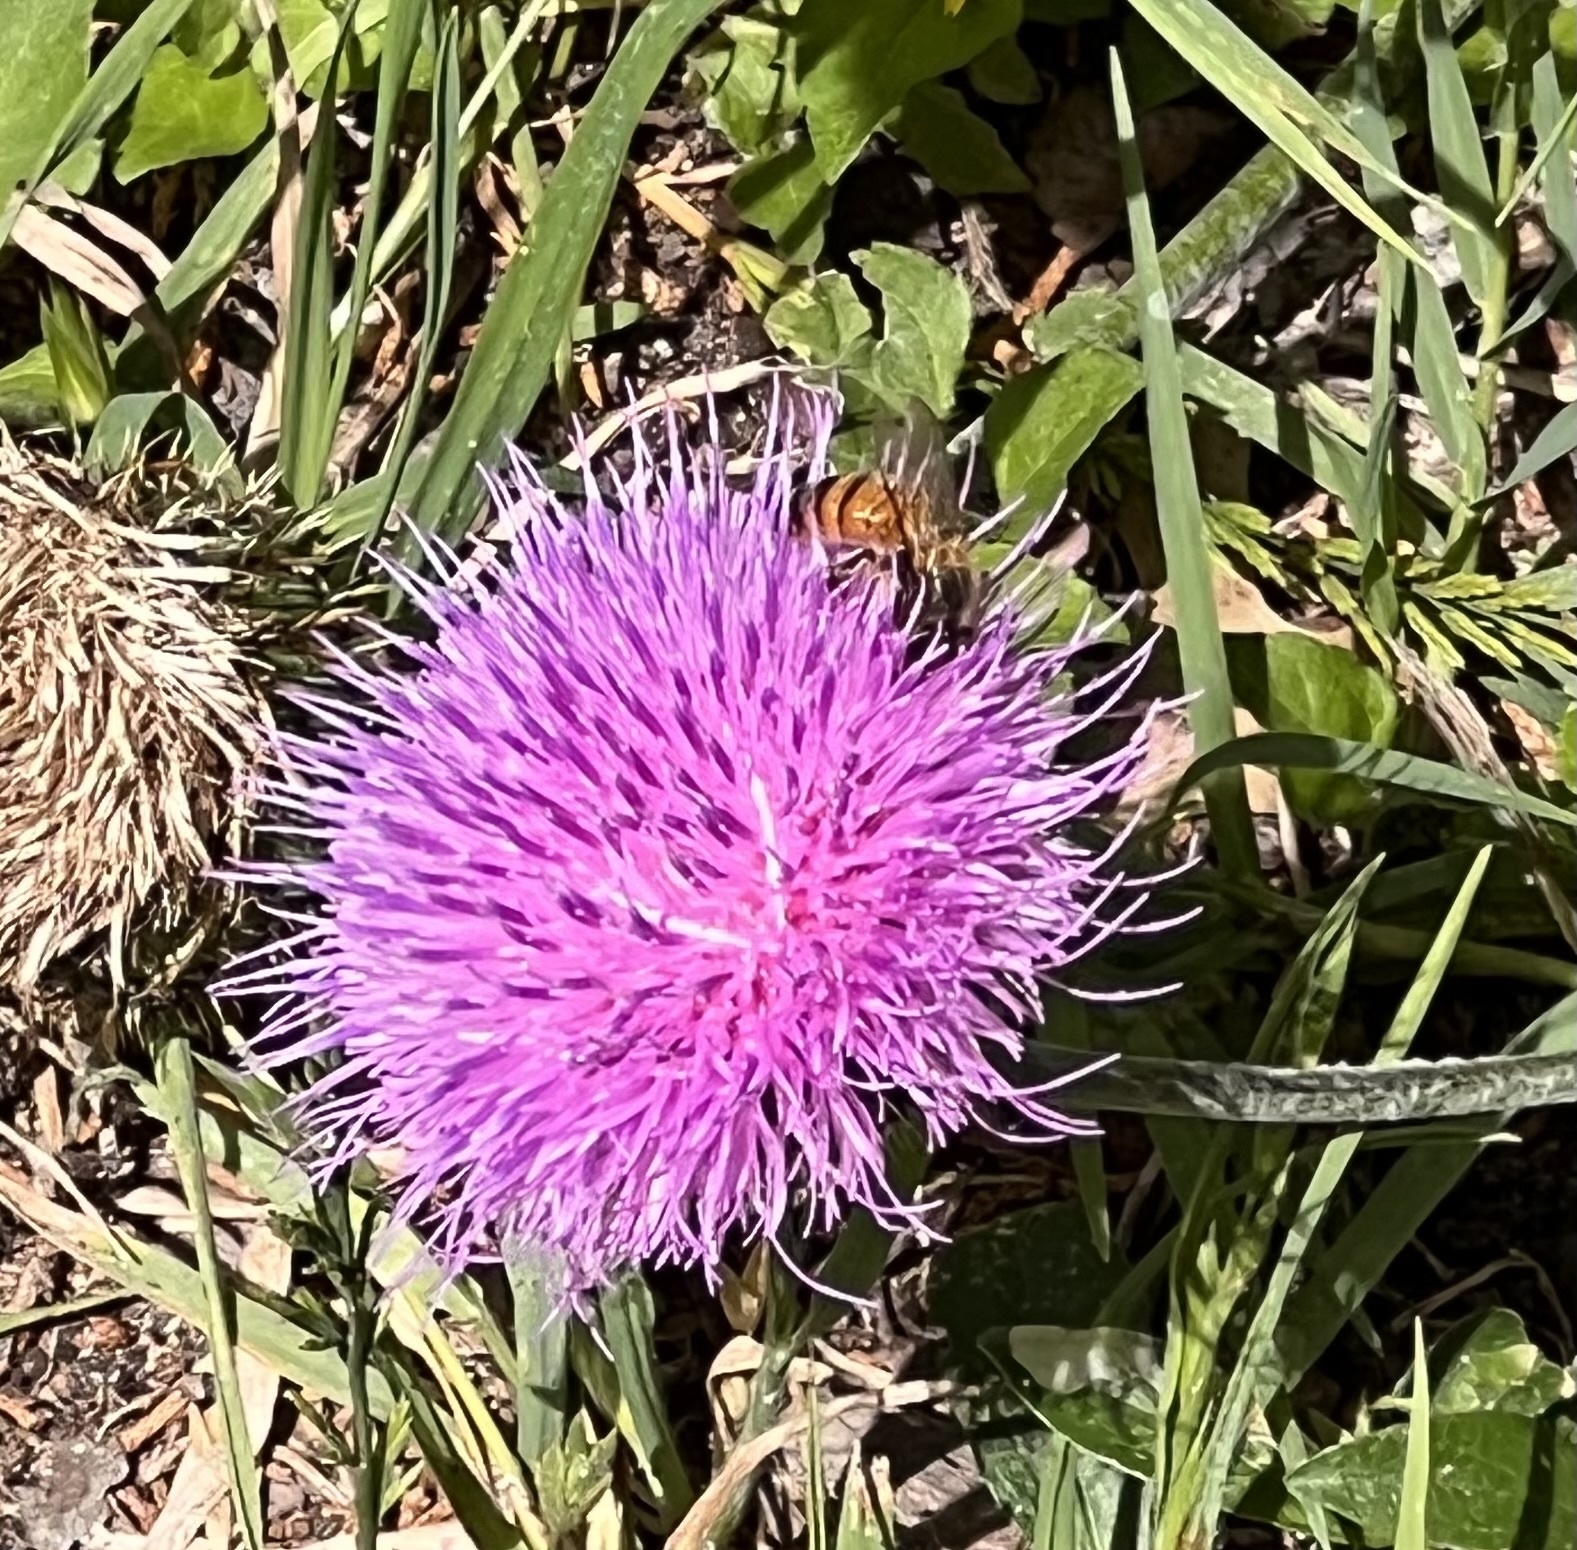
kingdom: Animalia
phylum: Arthropoda
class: Insecta
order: Hymenoptera
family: Apidae
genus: Apis
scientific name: Apis mellifera
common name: Honey bee
